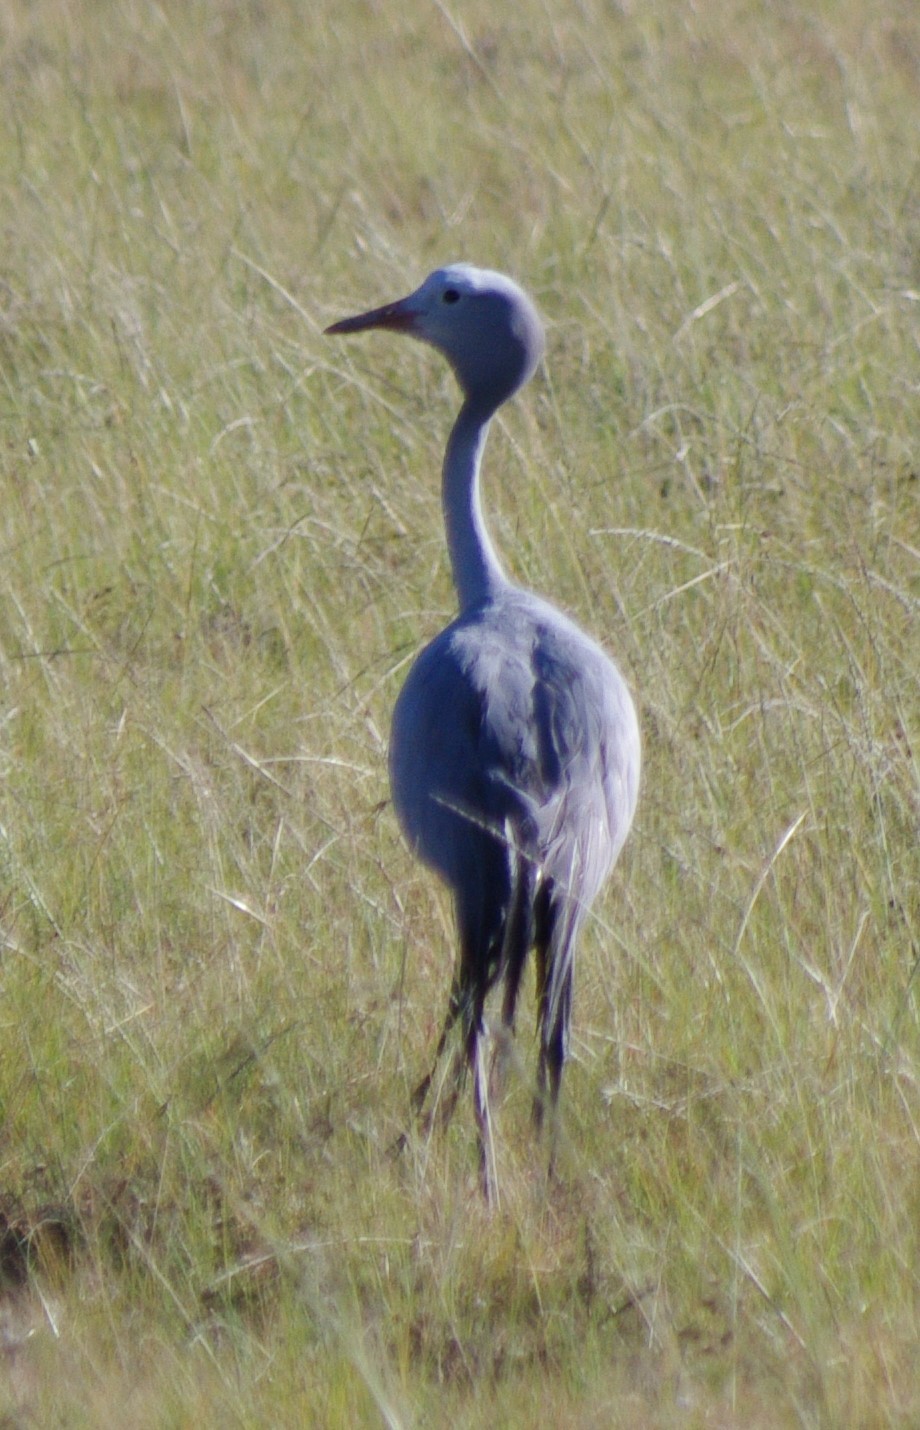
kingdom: Animalia
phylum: Chordata
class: Aves
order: Gruiformes
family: Gruidae
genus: Anthropoides
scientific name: Anthropoides paradiseus
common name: Blue crane
